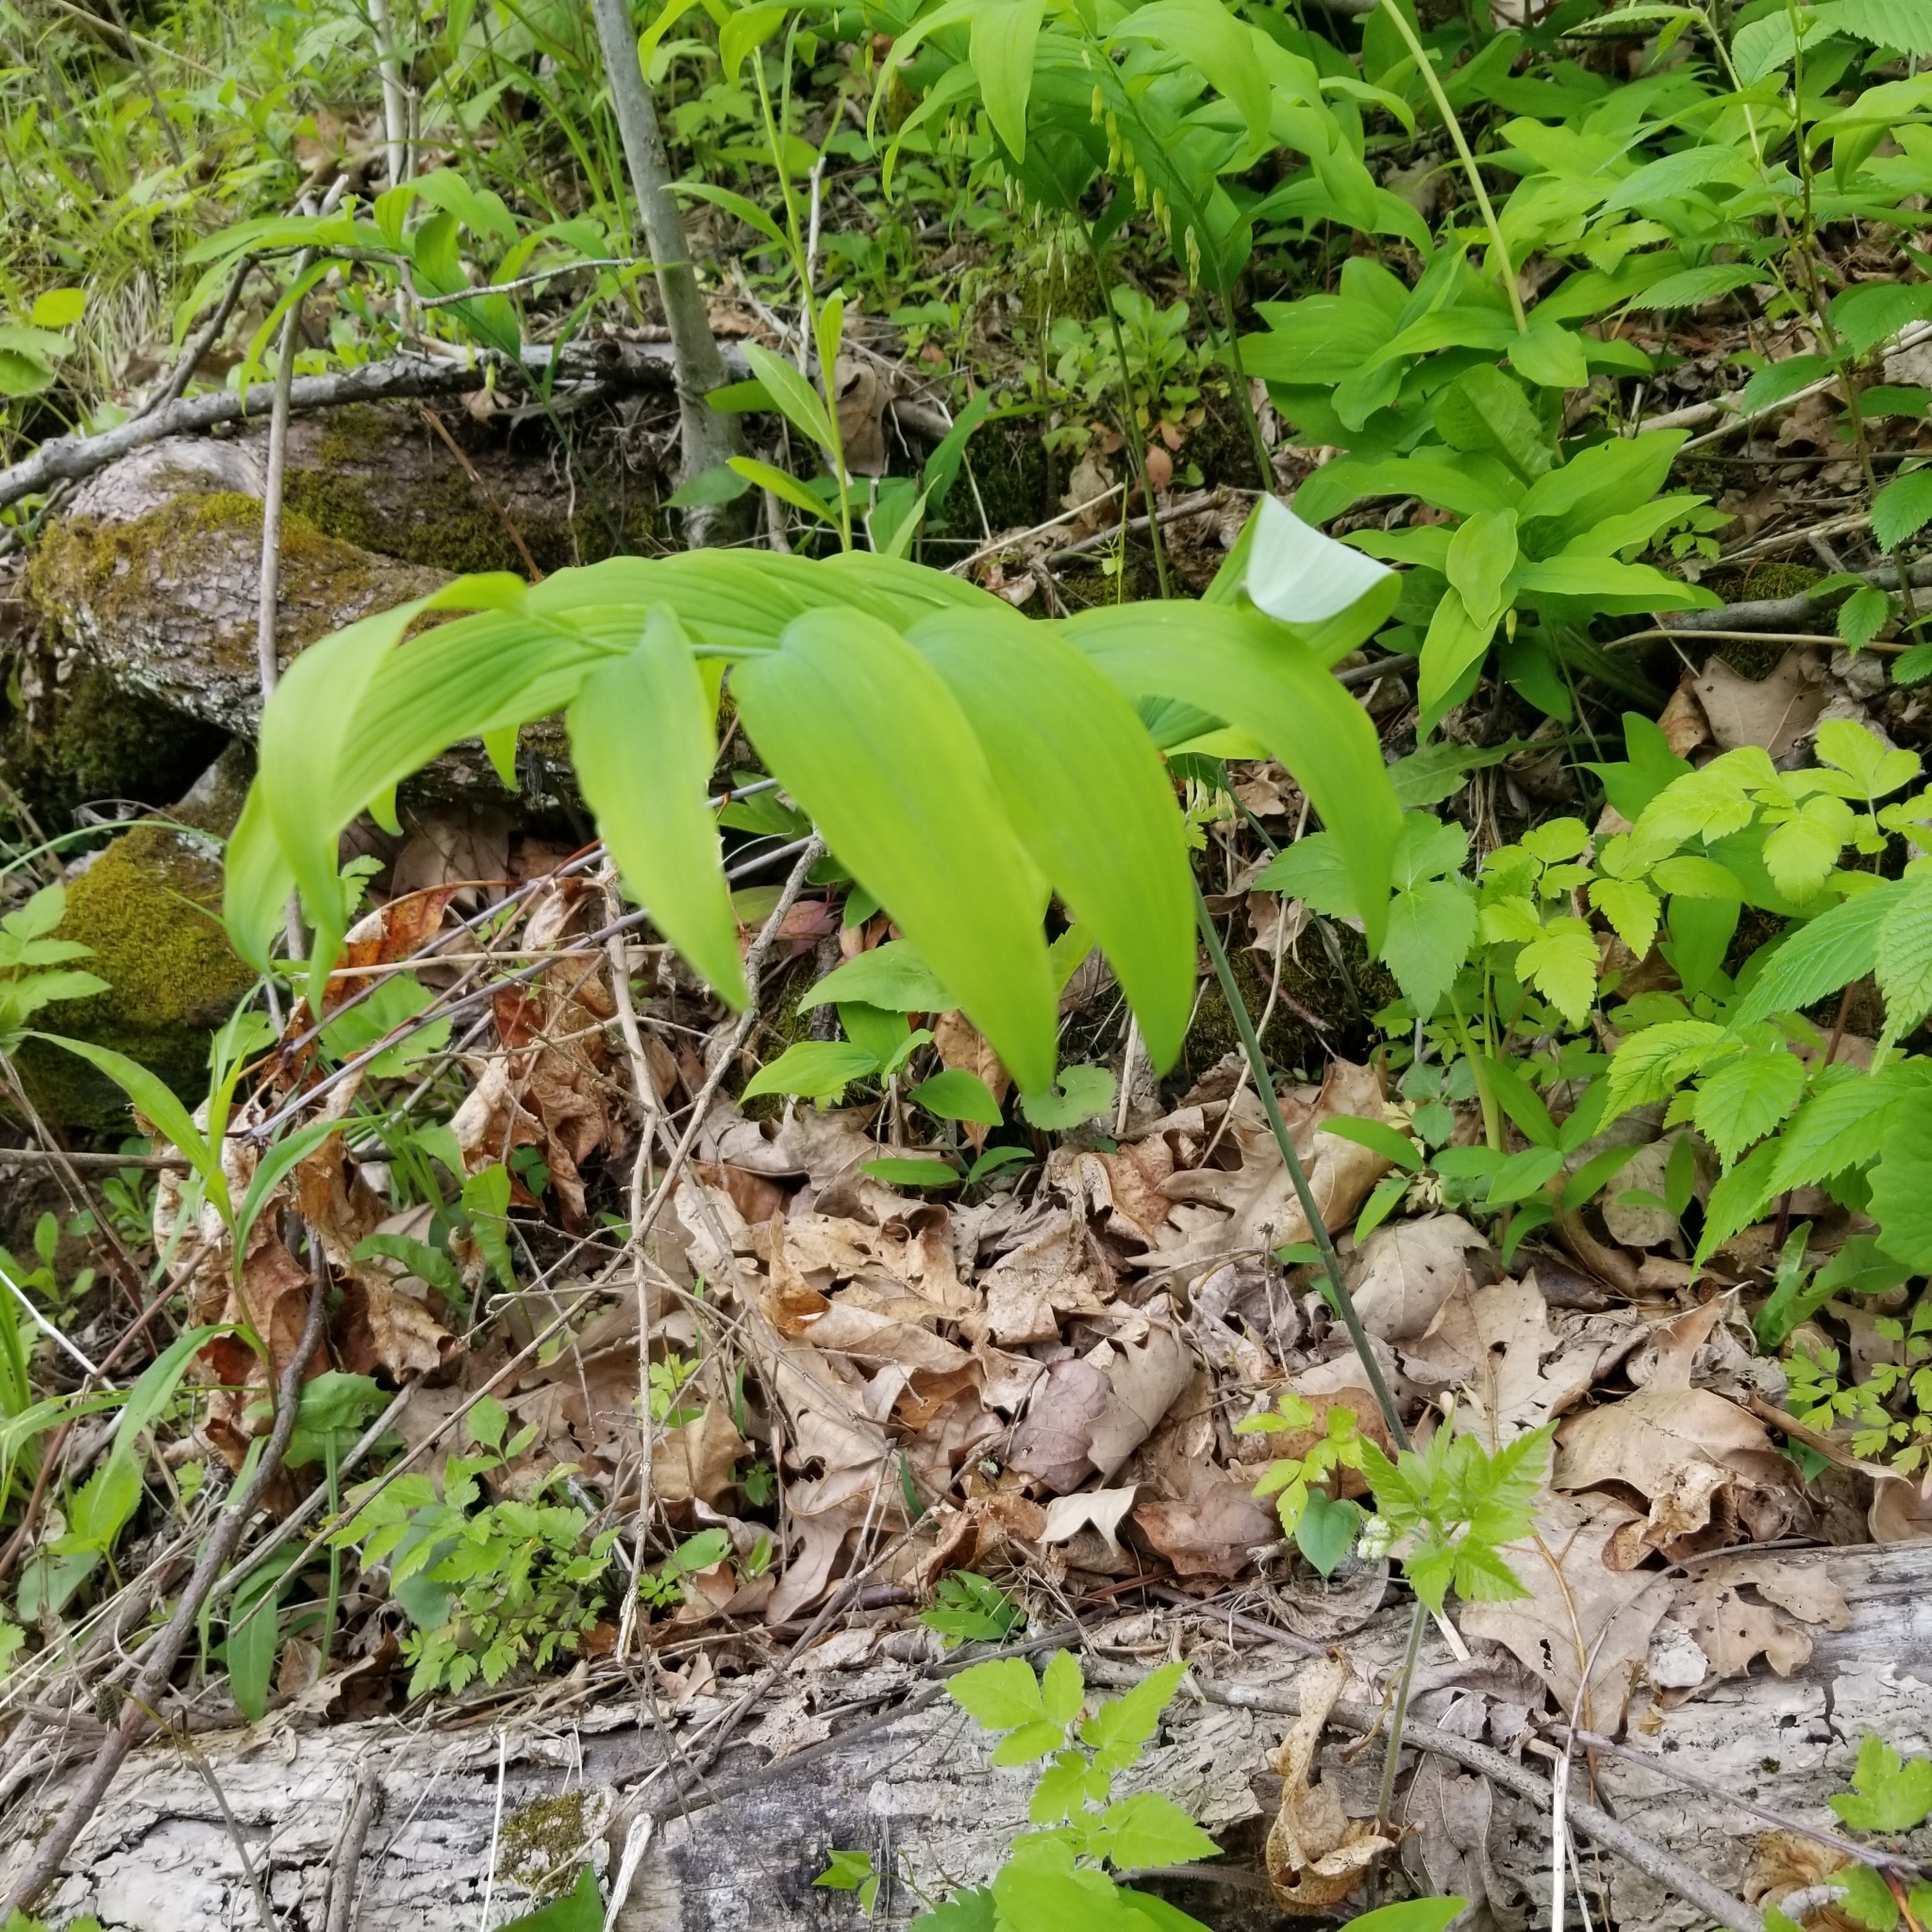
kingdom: Plantae
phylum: Tracheophyta
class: Liliopsida
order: Asparagales
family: Asparagaceae
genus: Polygonatum
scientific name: Polygonatum pubescens
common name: Downy solomon's seal
